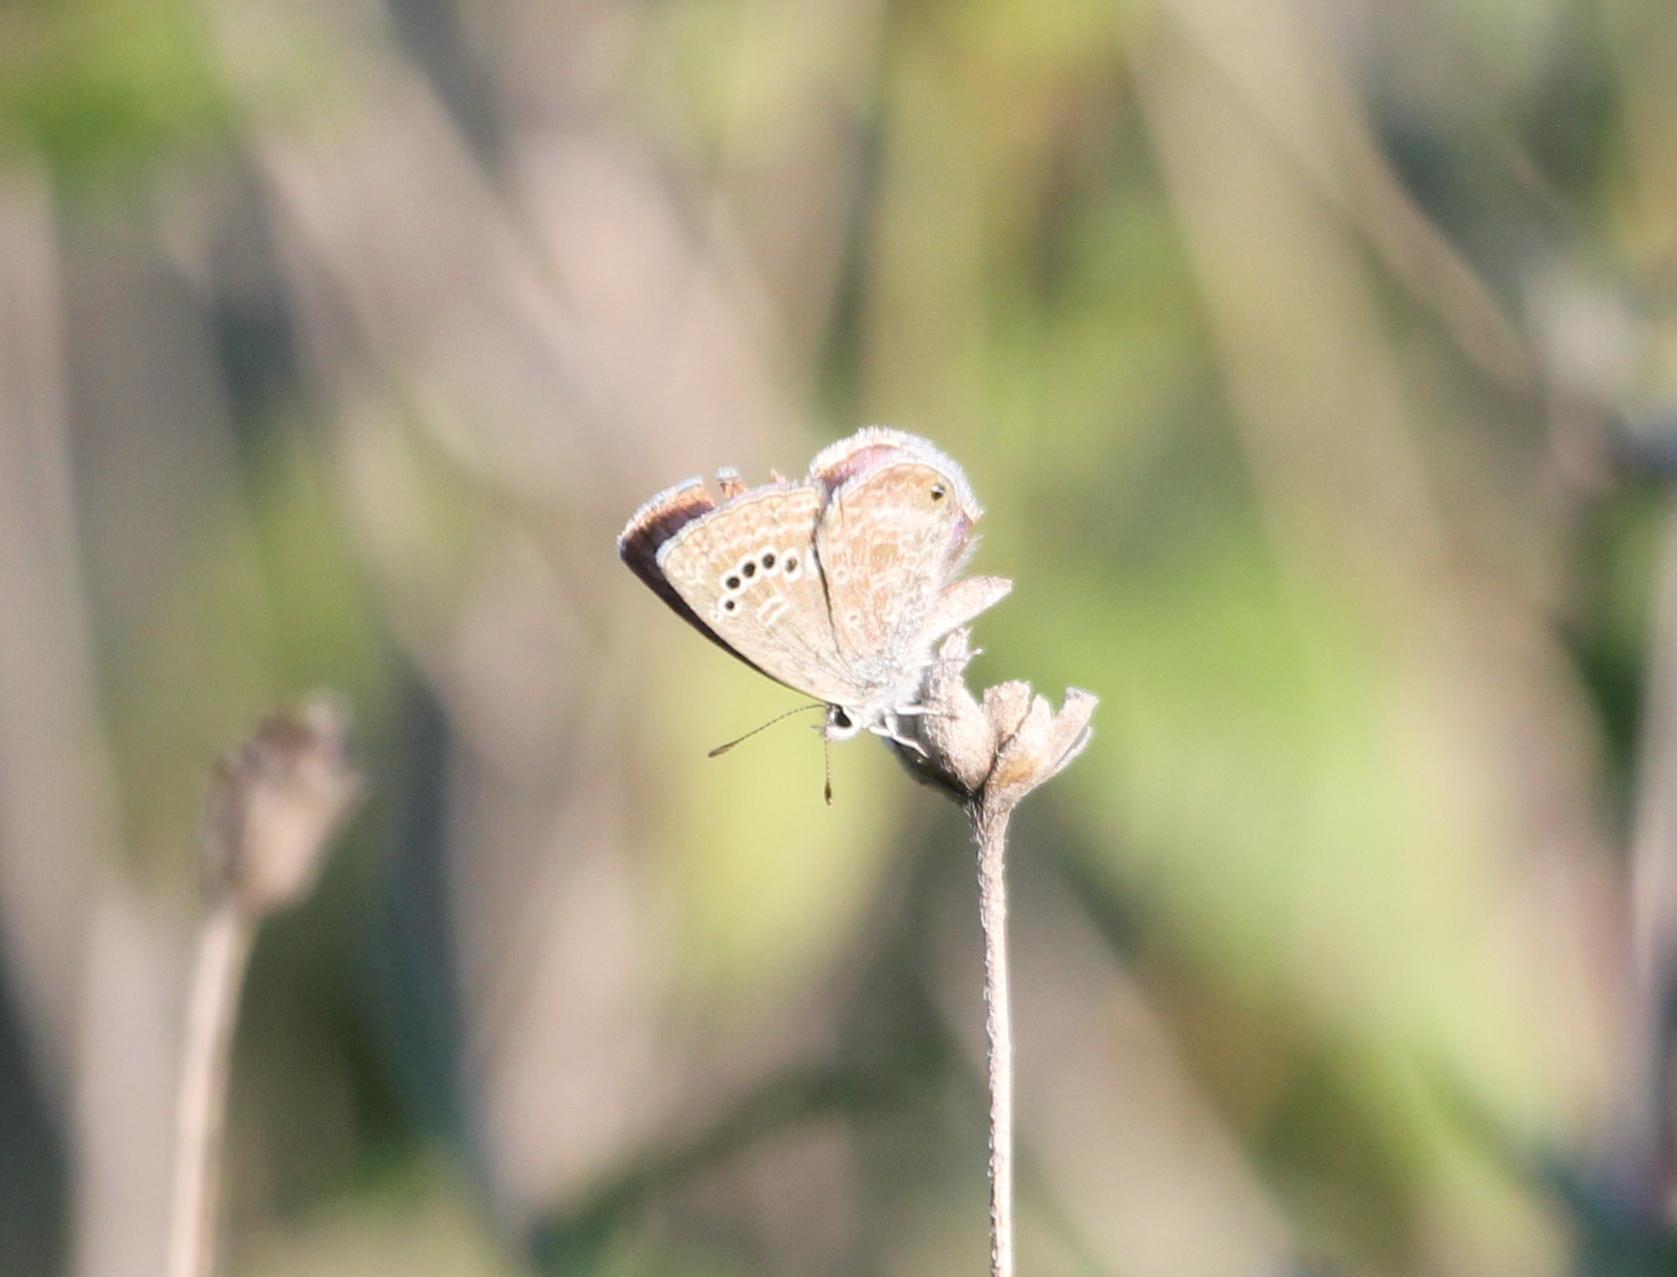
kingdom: Animalia
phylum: Arthropoda
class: Insecta
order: Lepidoptera
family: Lycaenidae
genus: Echinargus
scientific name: Echinargus isola
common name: Reakirt's blue
